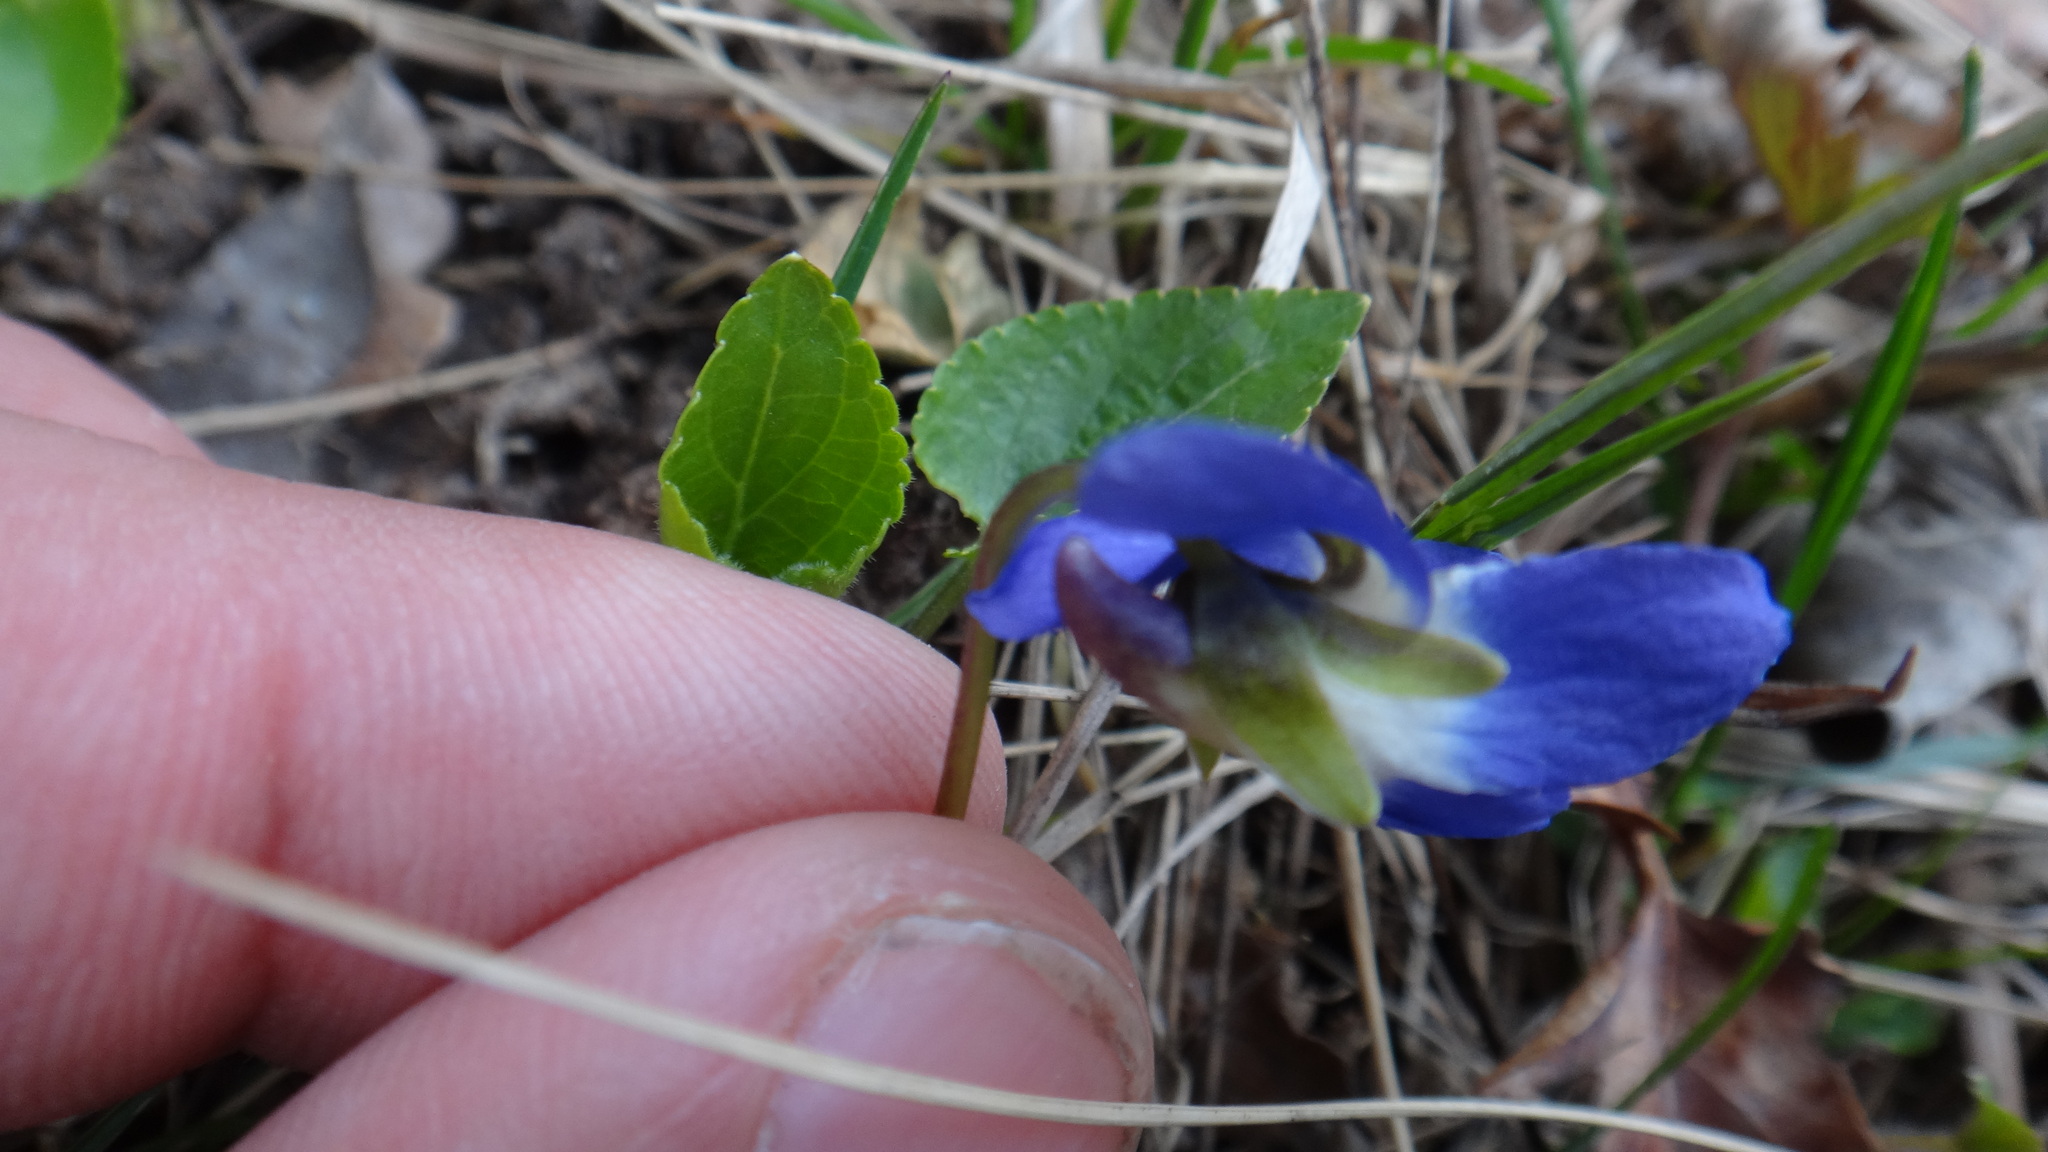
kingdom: Plantae
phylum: Tracheophyta
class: Magnoliopsida
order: Malpighiales
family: Violaceae
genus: Viola
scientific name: Viola suavis
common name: Russian violet
